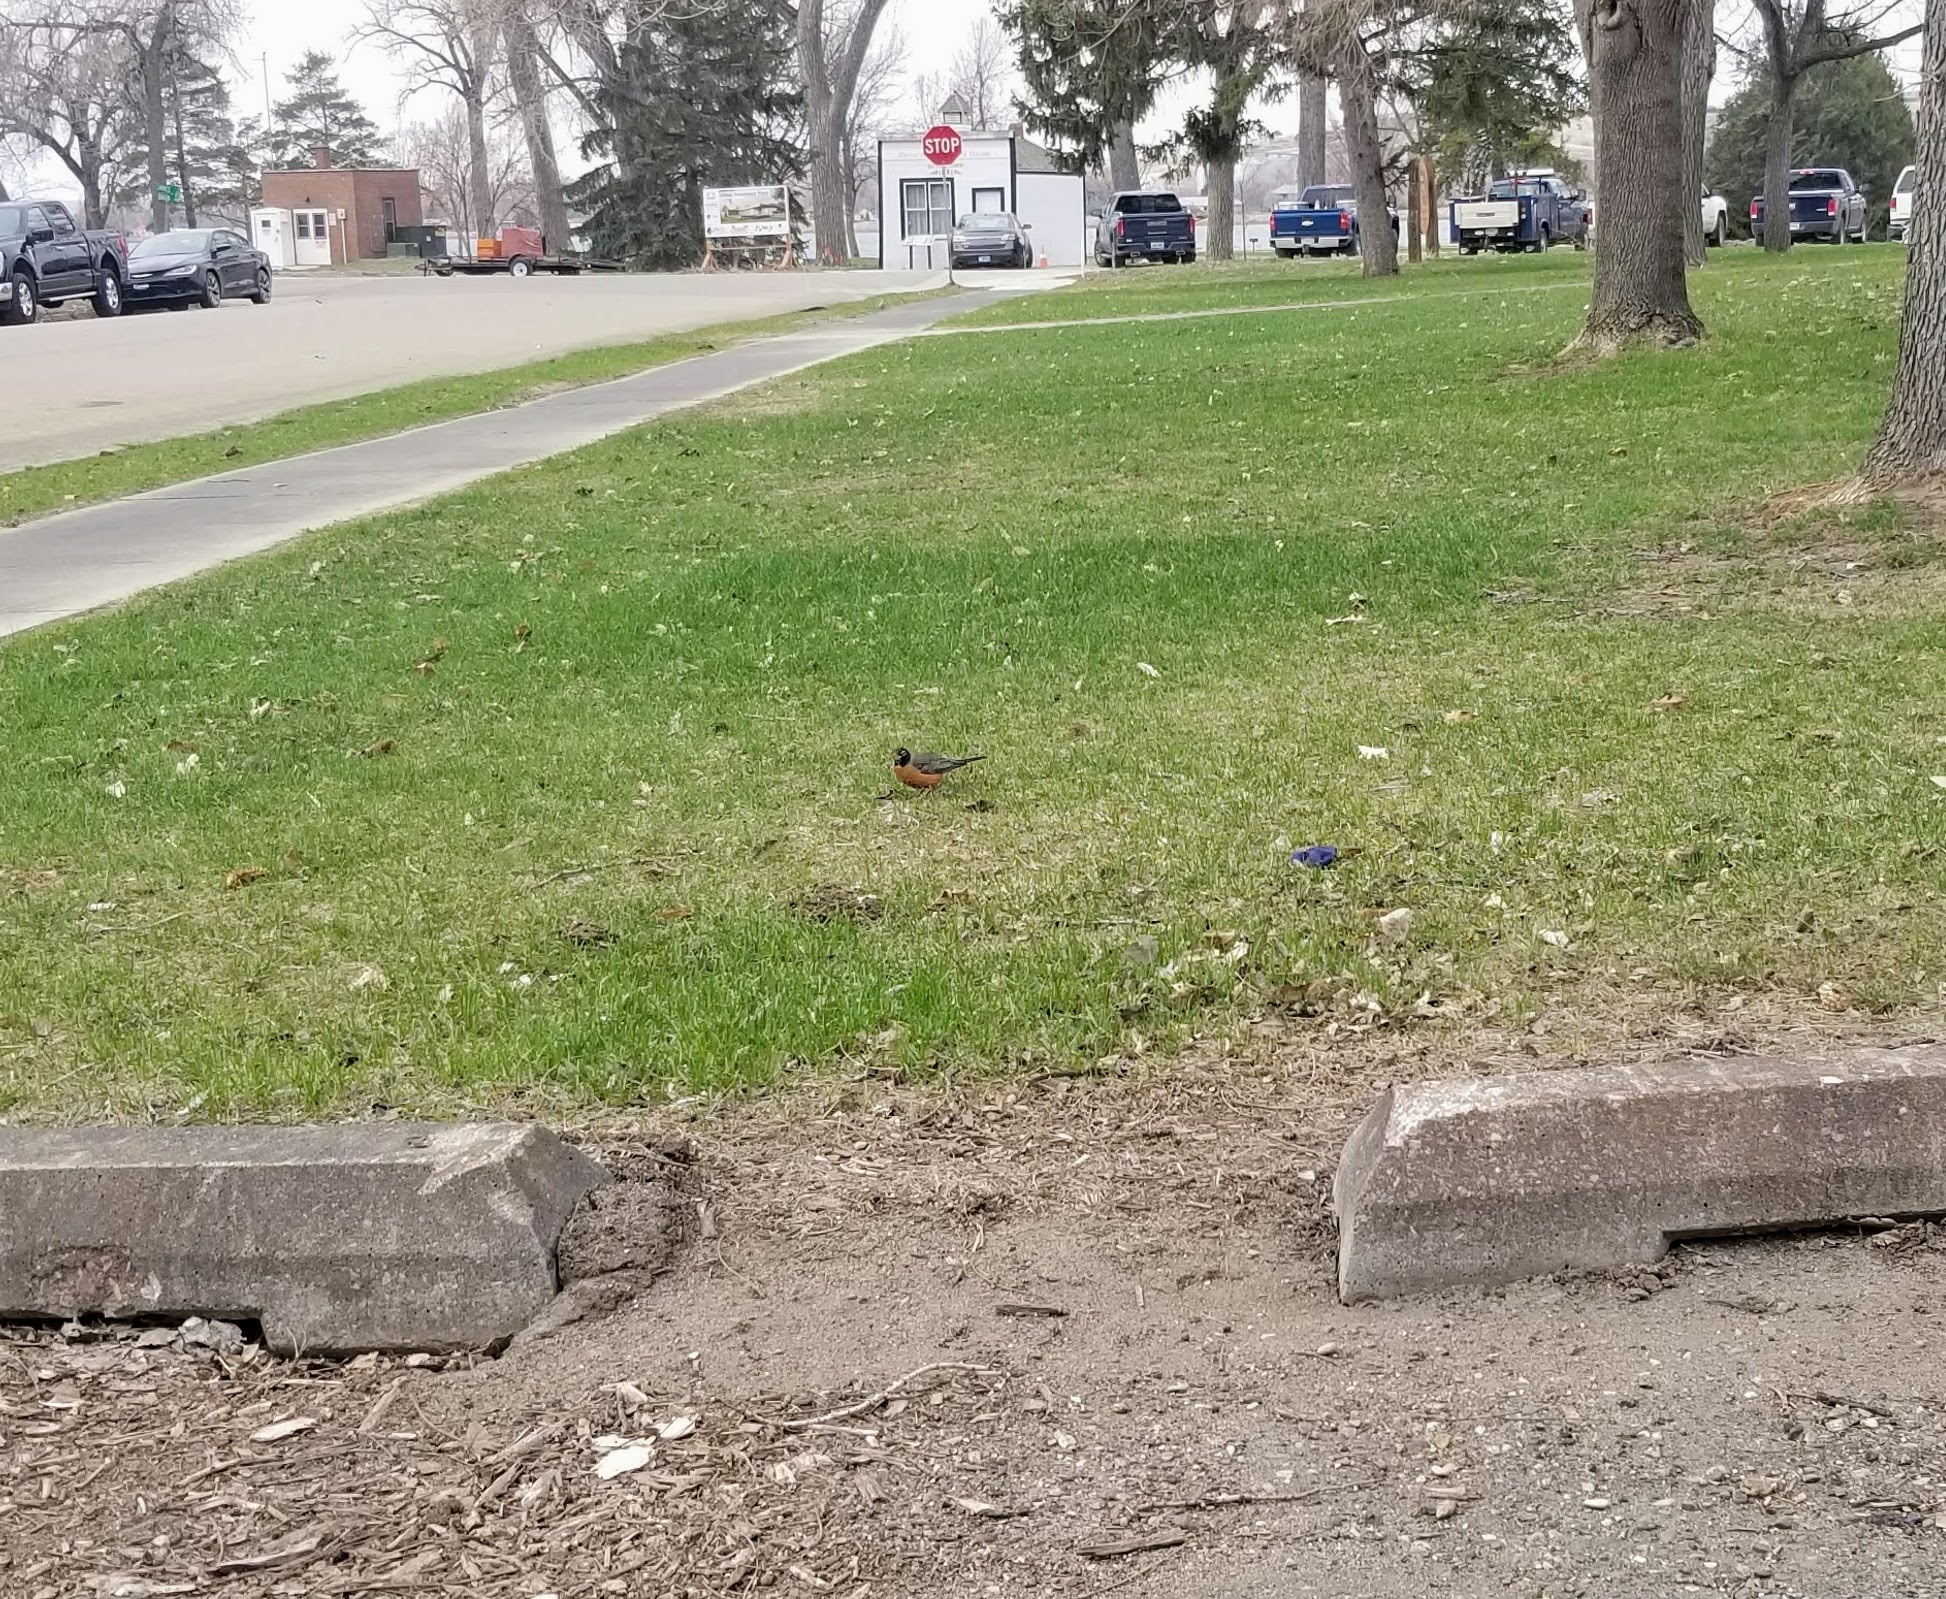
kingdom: Animalia
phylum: Chordata
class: Aves
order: Passeriformes
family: Turdidae
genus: Turdus
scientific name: Turdus migratorius
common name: American robin
